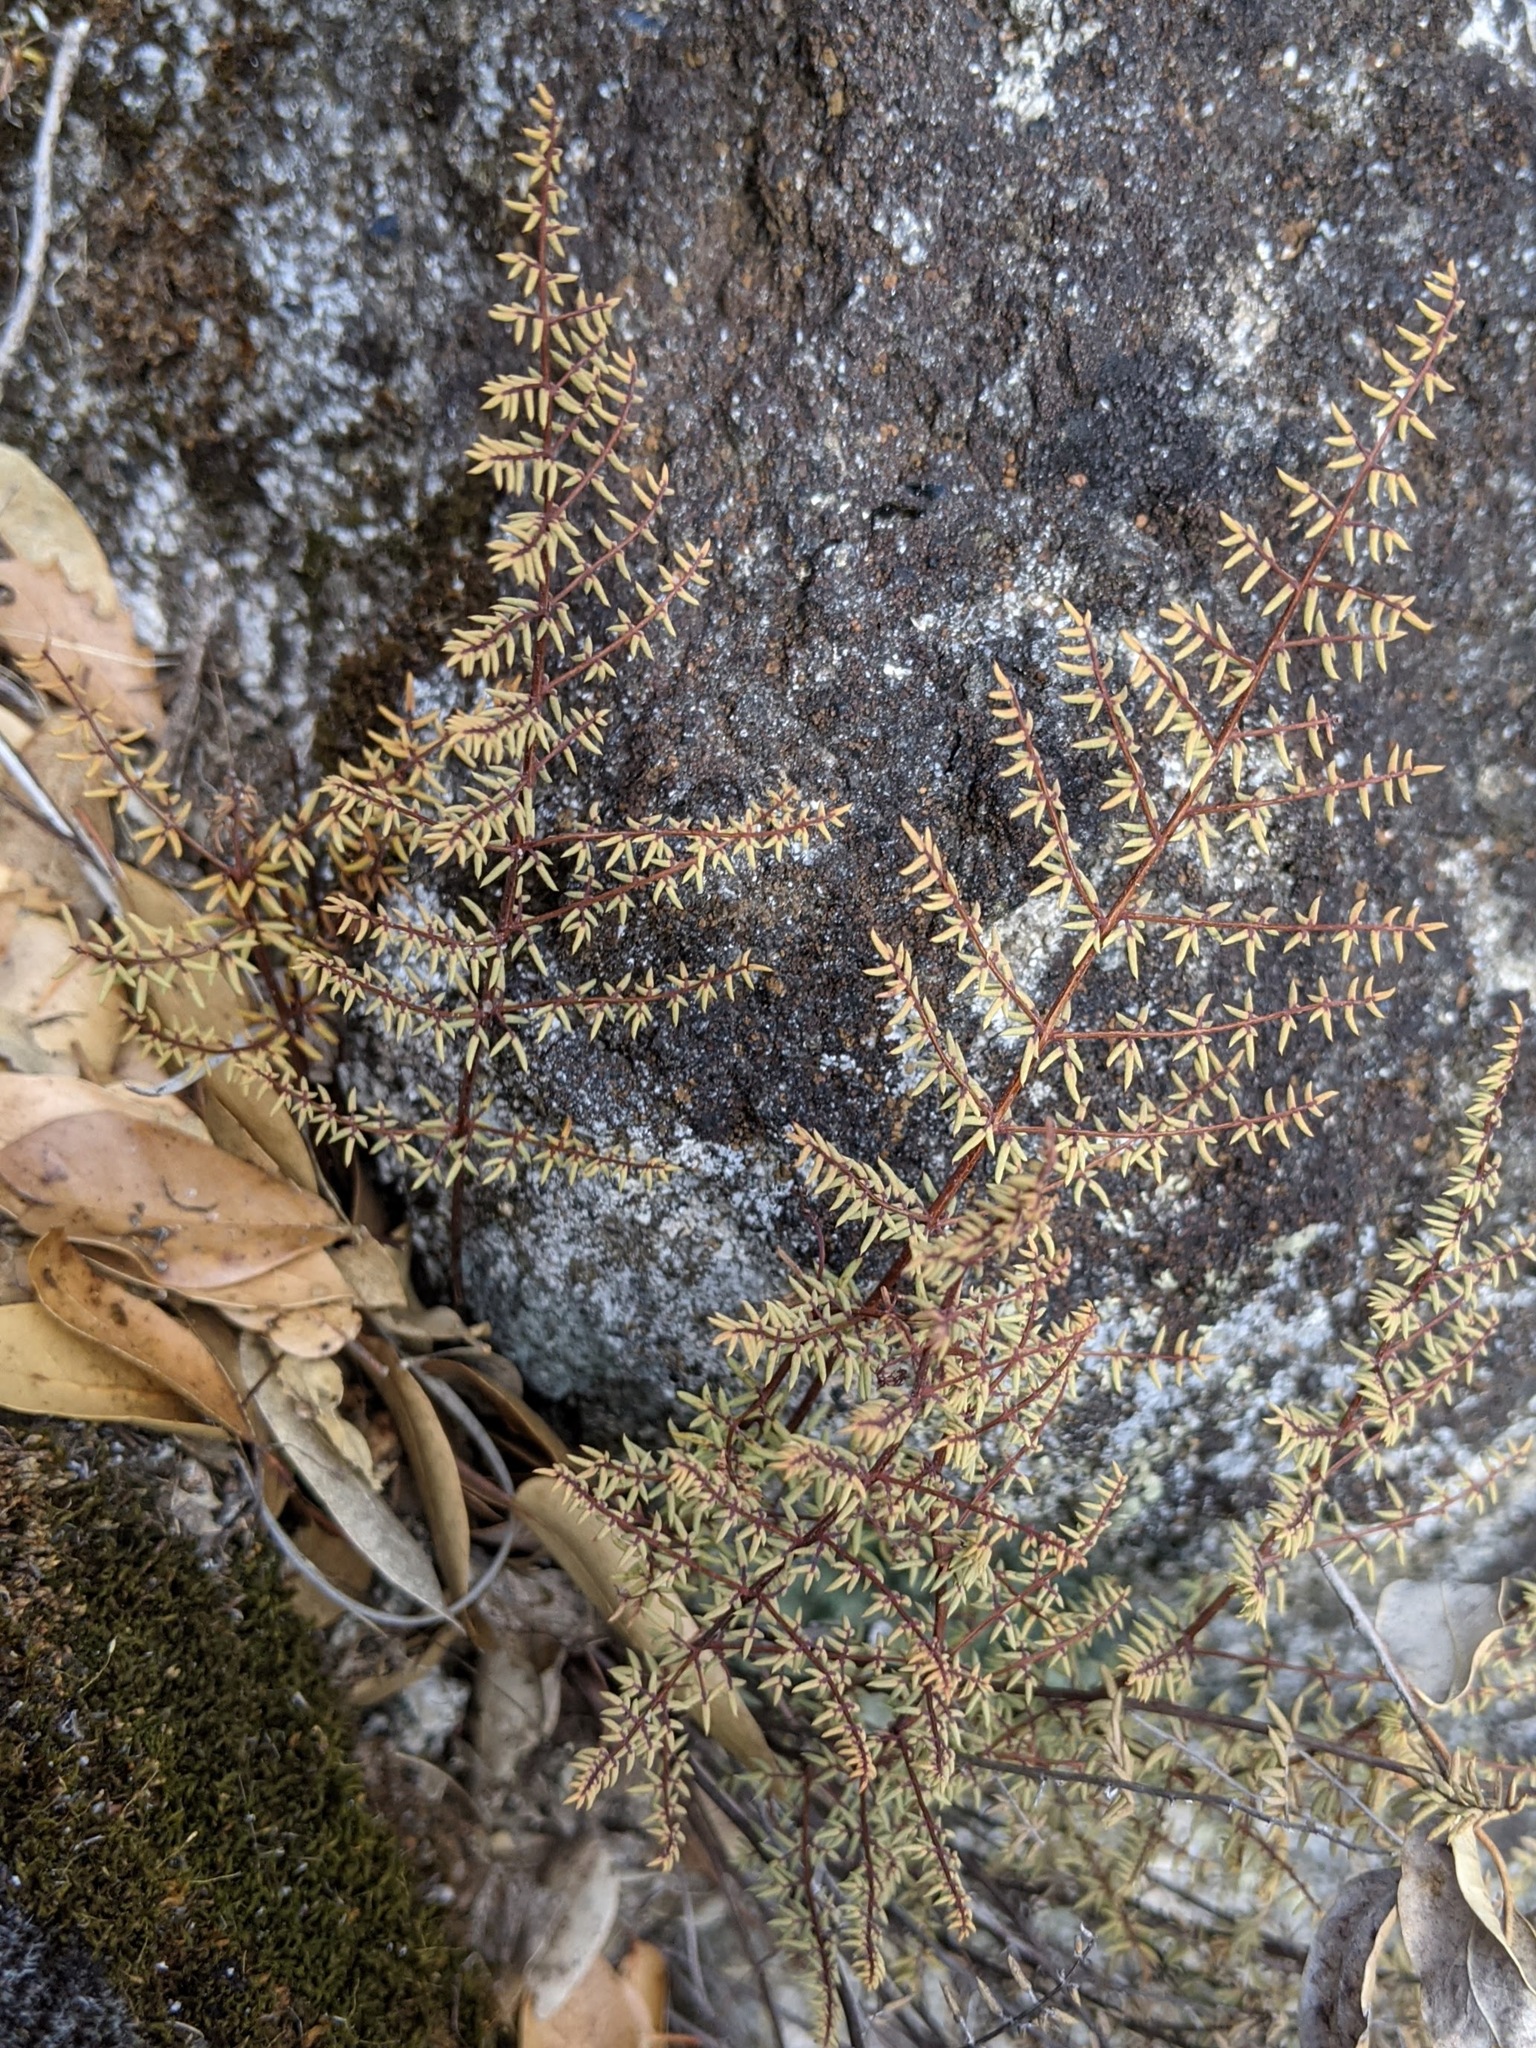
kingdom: Plantae
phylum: Tracheophyta
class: Polypodiopsida
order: Polypodiales
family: Pteridaceae
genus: Pellaea
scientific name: Pellaea mucronata
